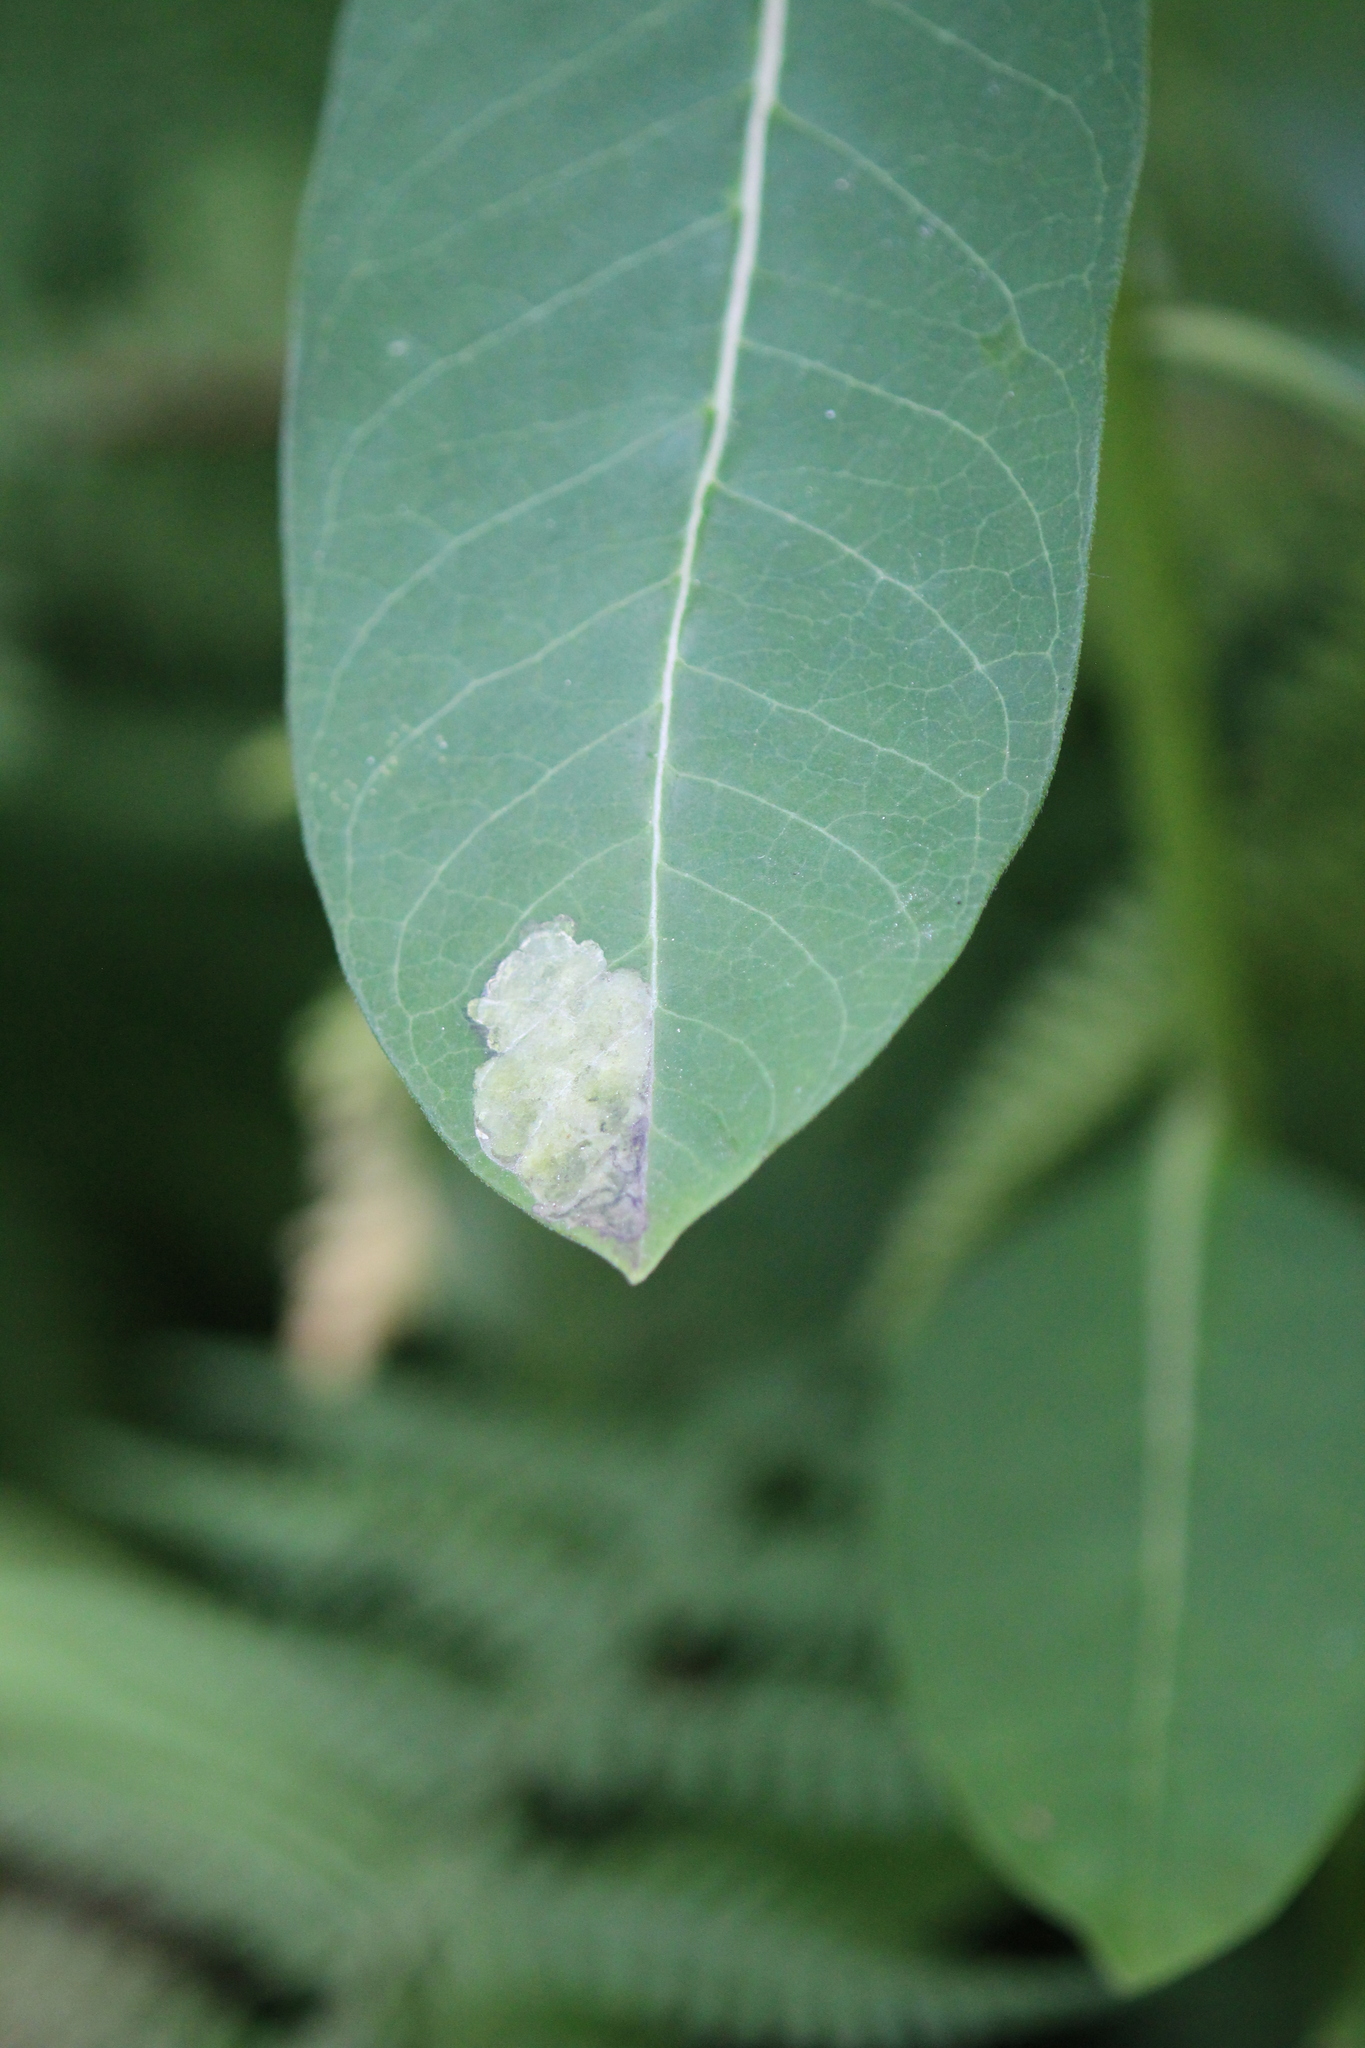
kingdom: Animalia
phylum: Arthropoda
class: Insecta
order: Diptera
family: Agromyzidae
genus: Liriomyza
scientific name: Liriomyza asclepiadis
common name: Milkweed leaf-miner fly
